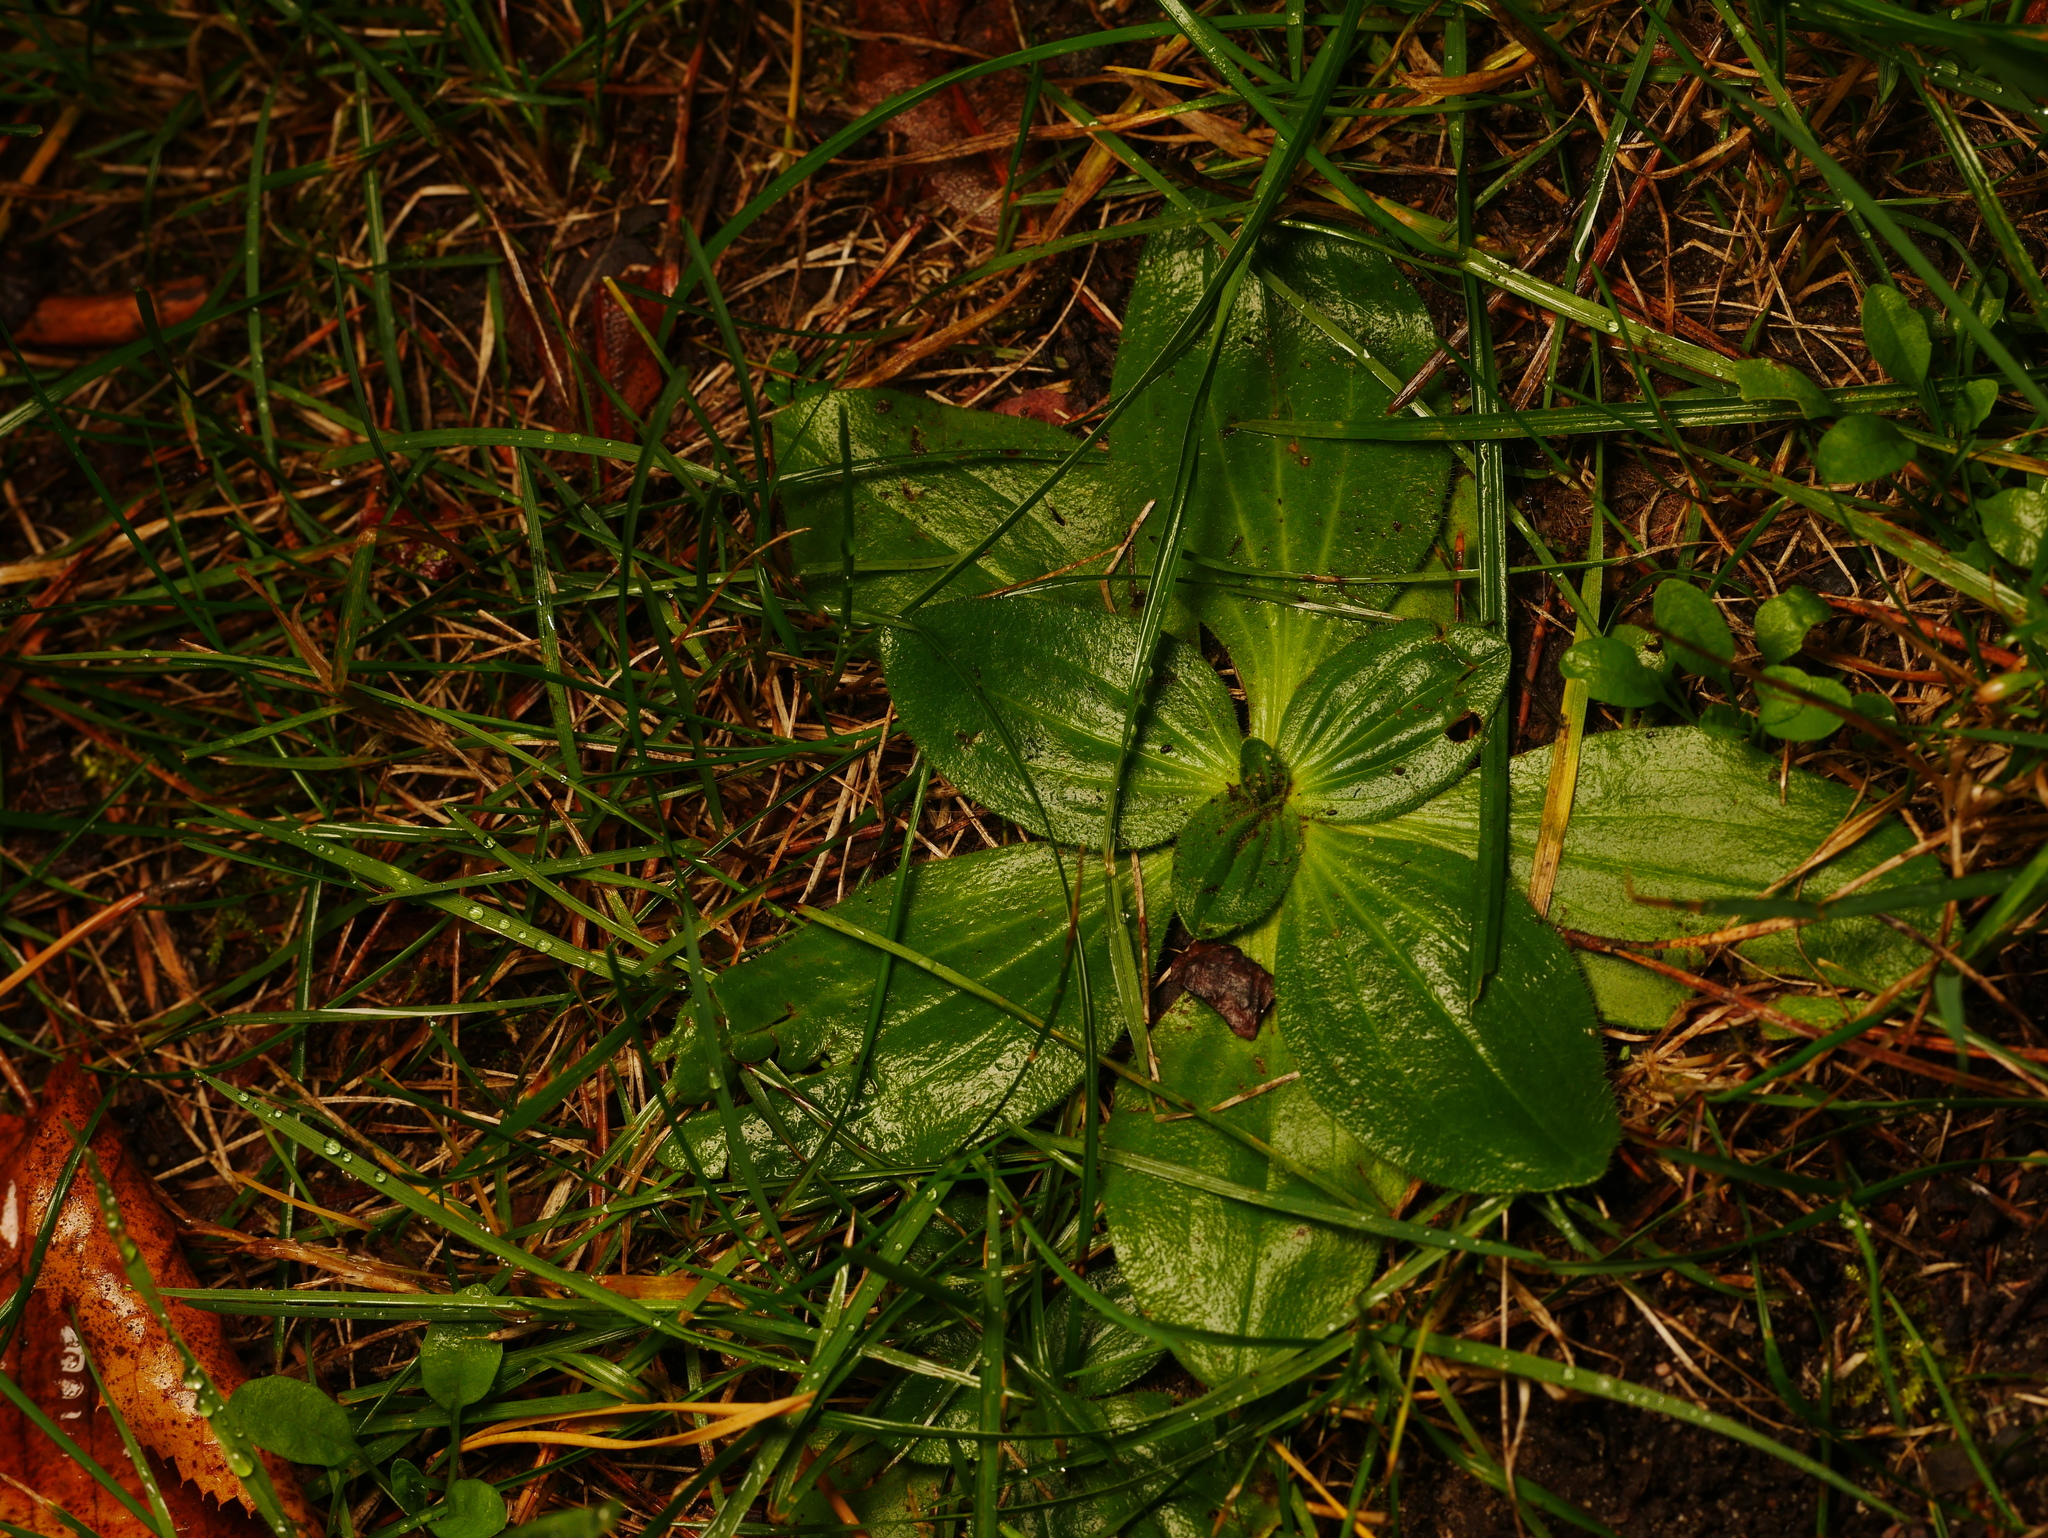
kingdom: Plantae
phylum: Tracheophyta
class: Magnoliopsida
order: Lamiales
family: Plantaginaceae
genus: Plantago
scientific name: Plantago media
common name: Hoary plantain
